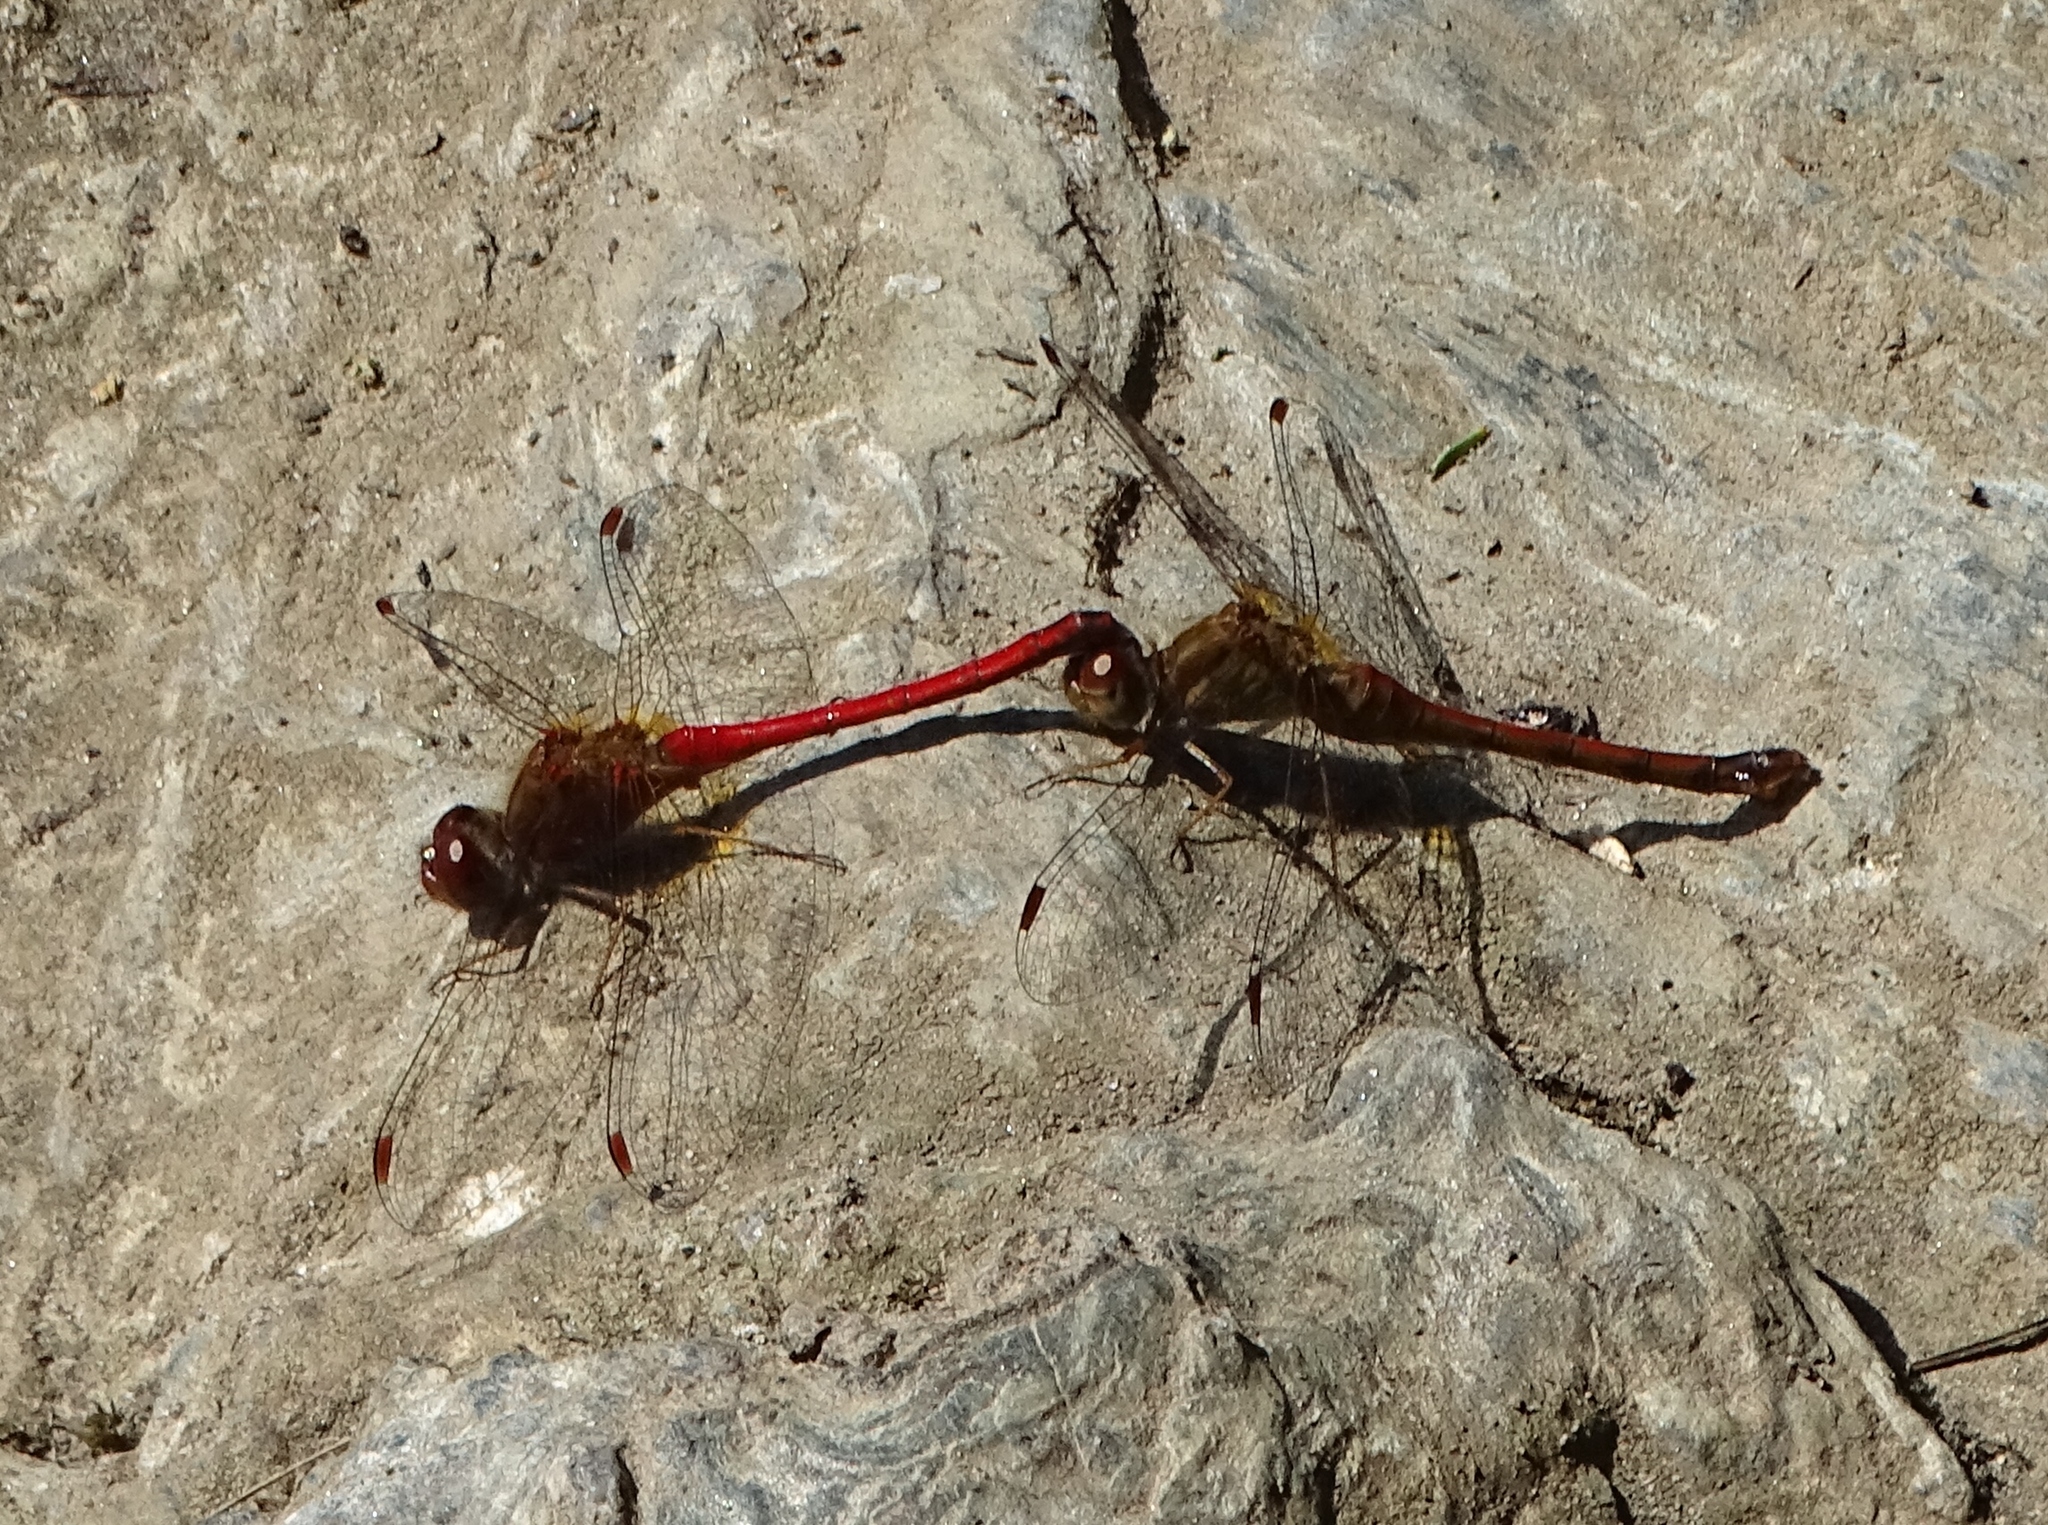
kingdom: Animalia
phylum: Arthropoda
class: Insecta
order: Odonata
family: Libellulidae
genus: Sympetrum
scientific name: Sympetrum vicinum
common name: Autumn meadowhawk
